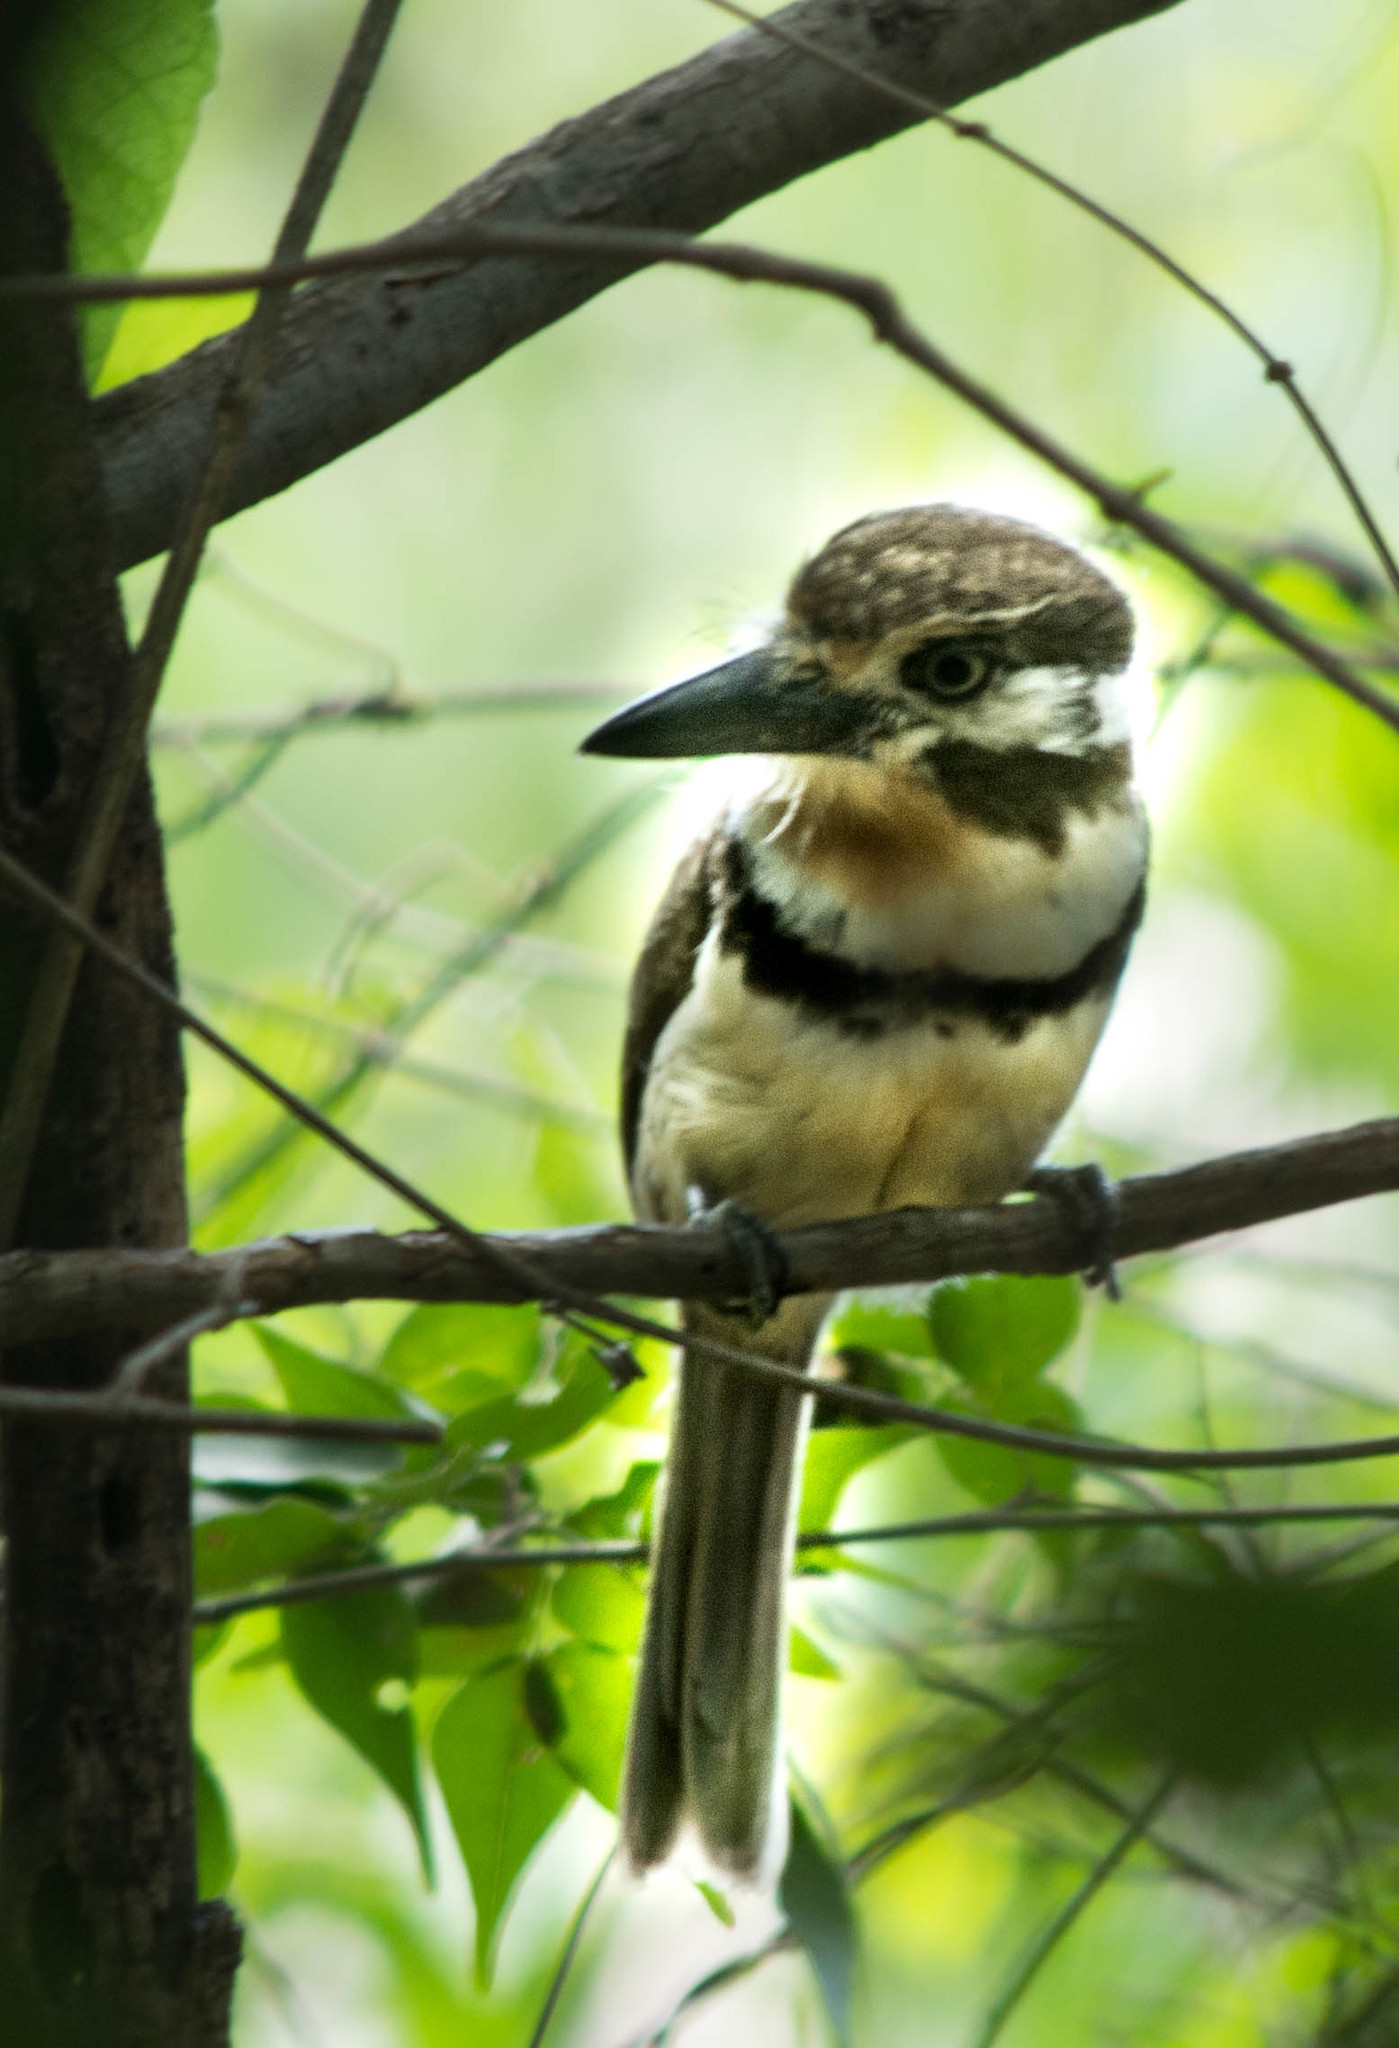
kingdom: Animalia
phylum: Chordata
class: Aves
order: Piciformes
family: Bucconidae
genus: Hypnelus
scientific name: Hypnelus ruficollis
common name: Russet-throated puffbird
